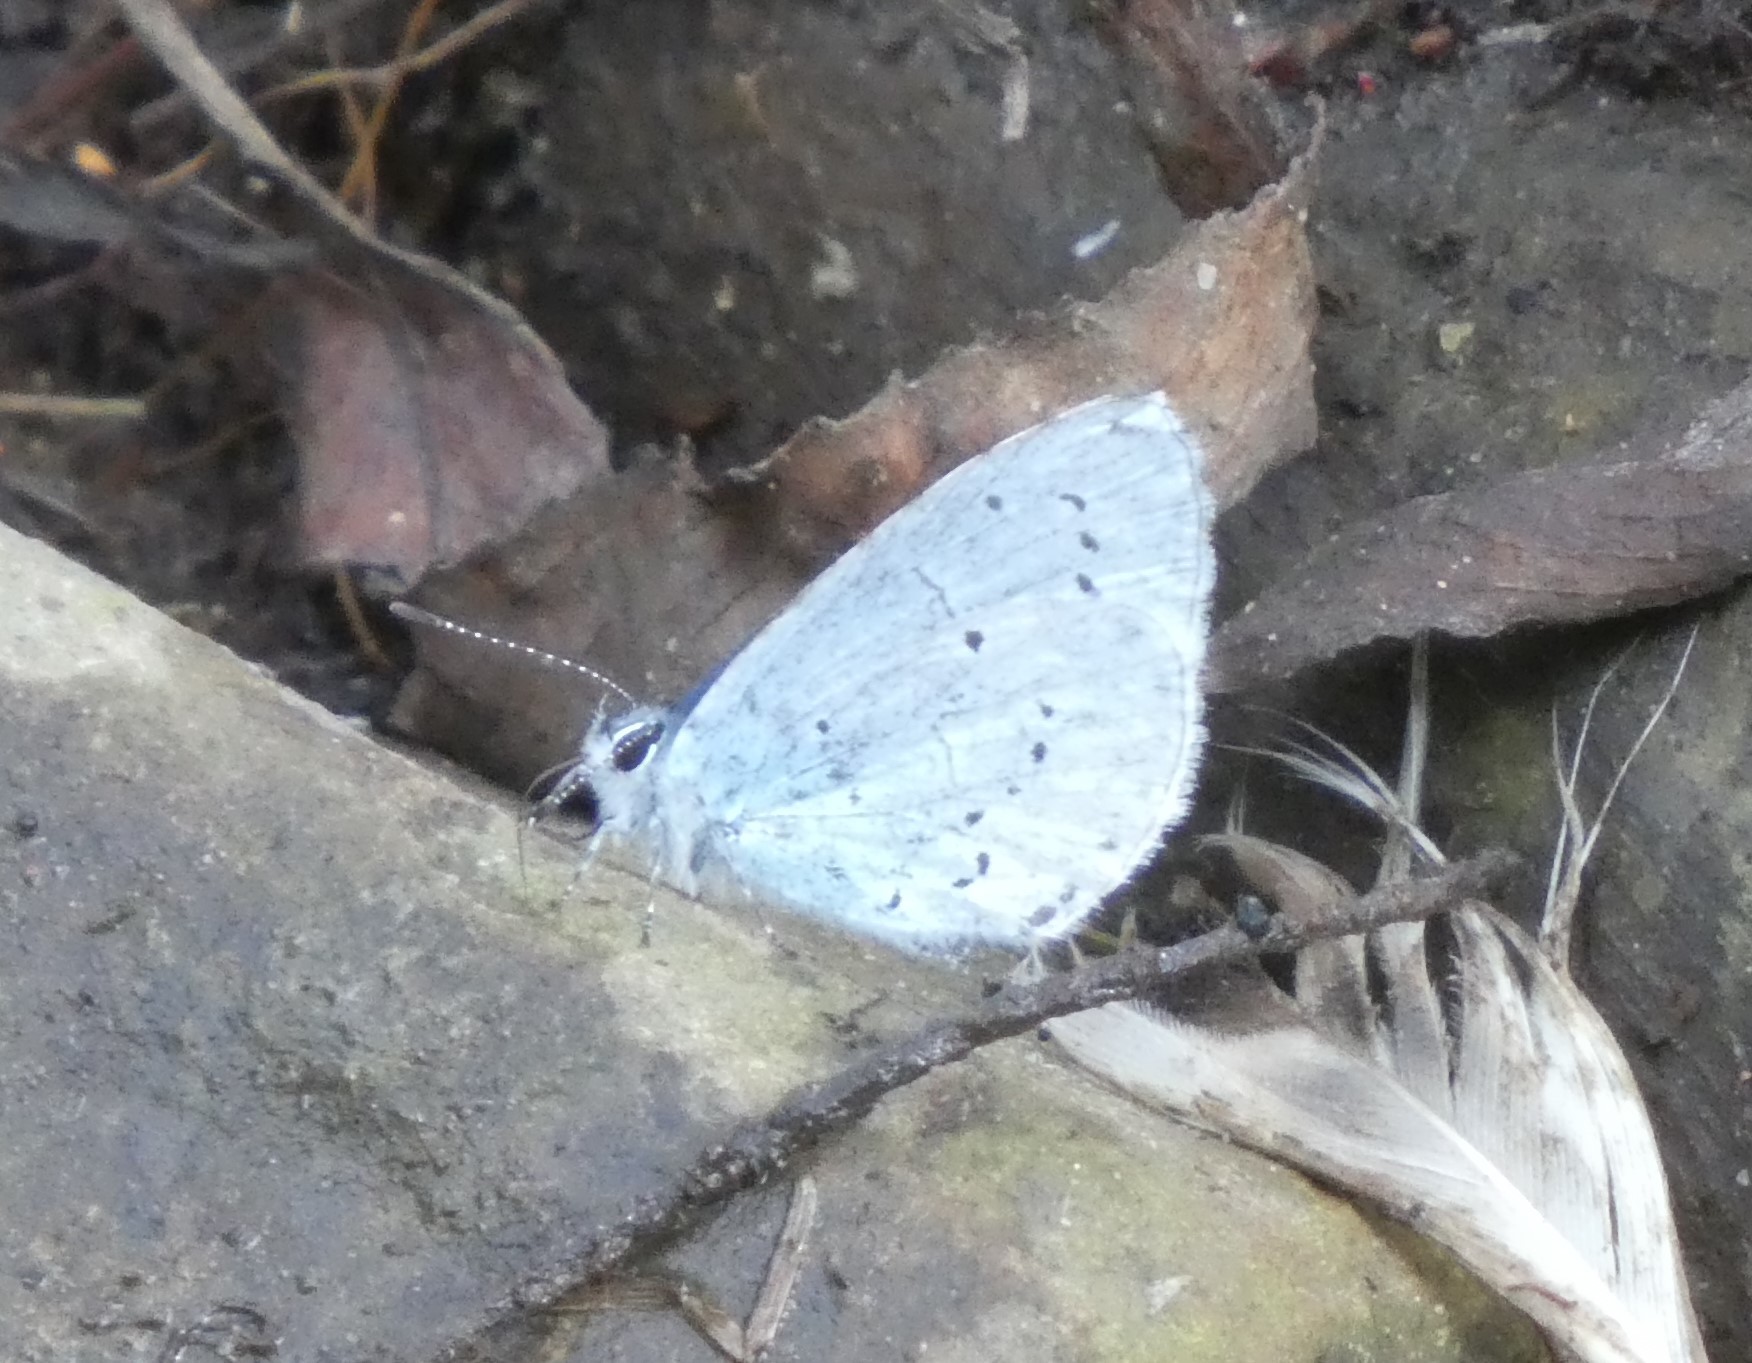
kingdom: Animalia
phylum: Arthropoda
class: Insecta
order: Lepidoptera
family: Lycaenidae
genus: Celastrina
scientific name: Celastrina argiolus
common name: Holly blue
